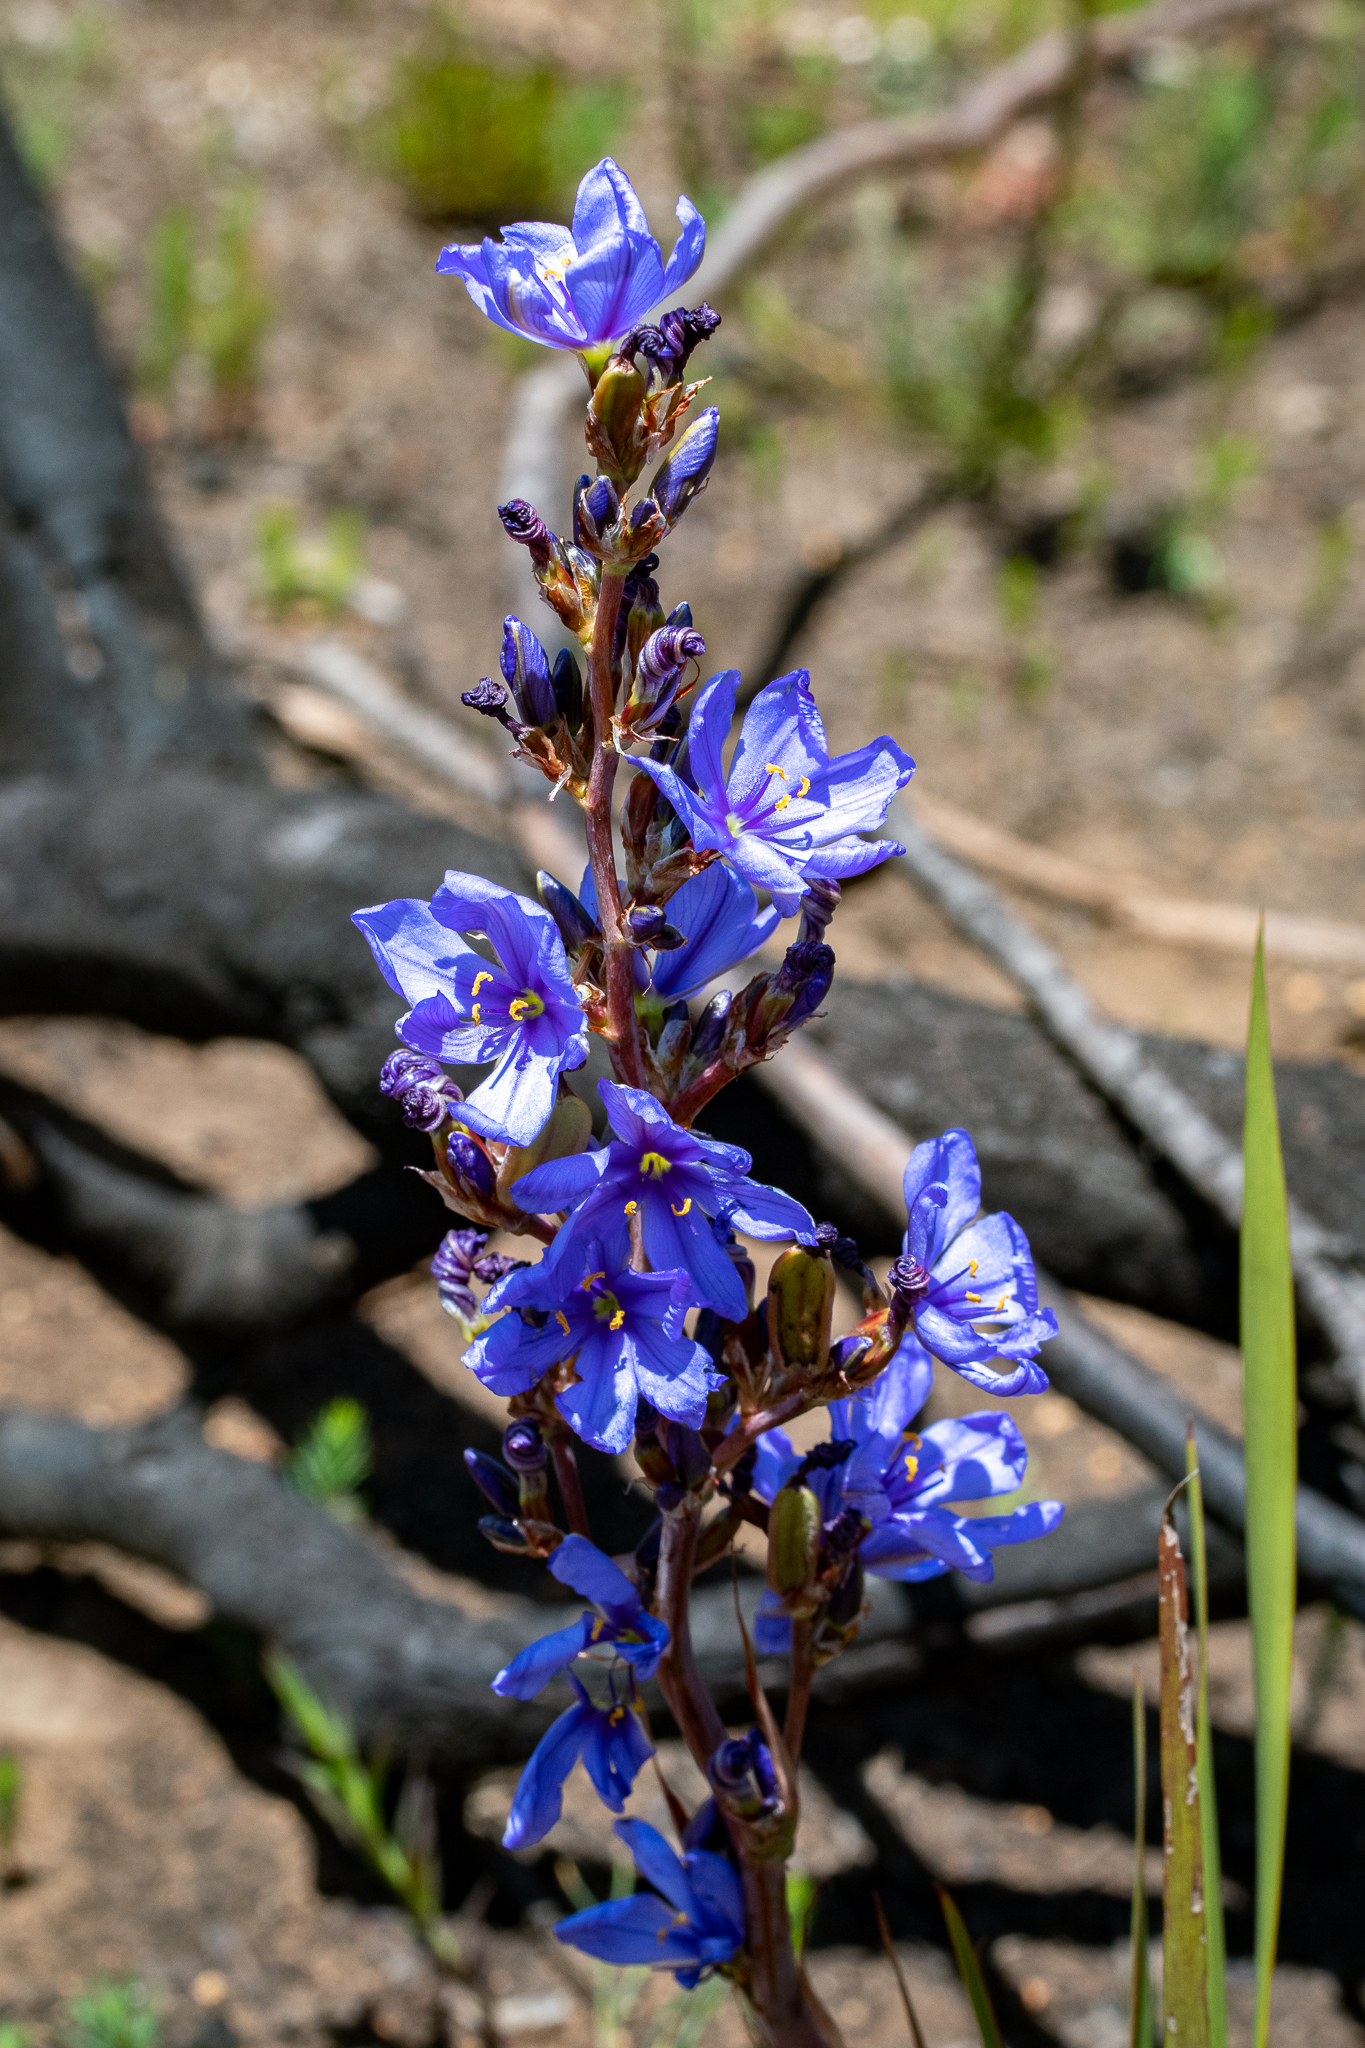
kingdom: Plantae
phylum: Tracheophyta
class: Liliopsida
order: Asparagales
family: Iridaceae
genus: Aristea
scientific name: Aristea bakeri
